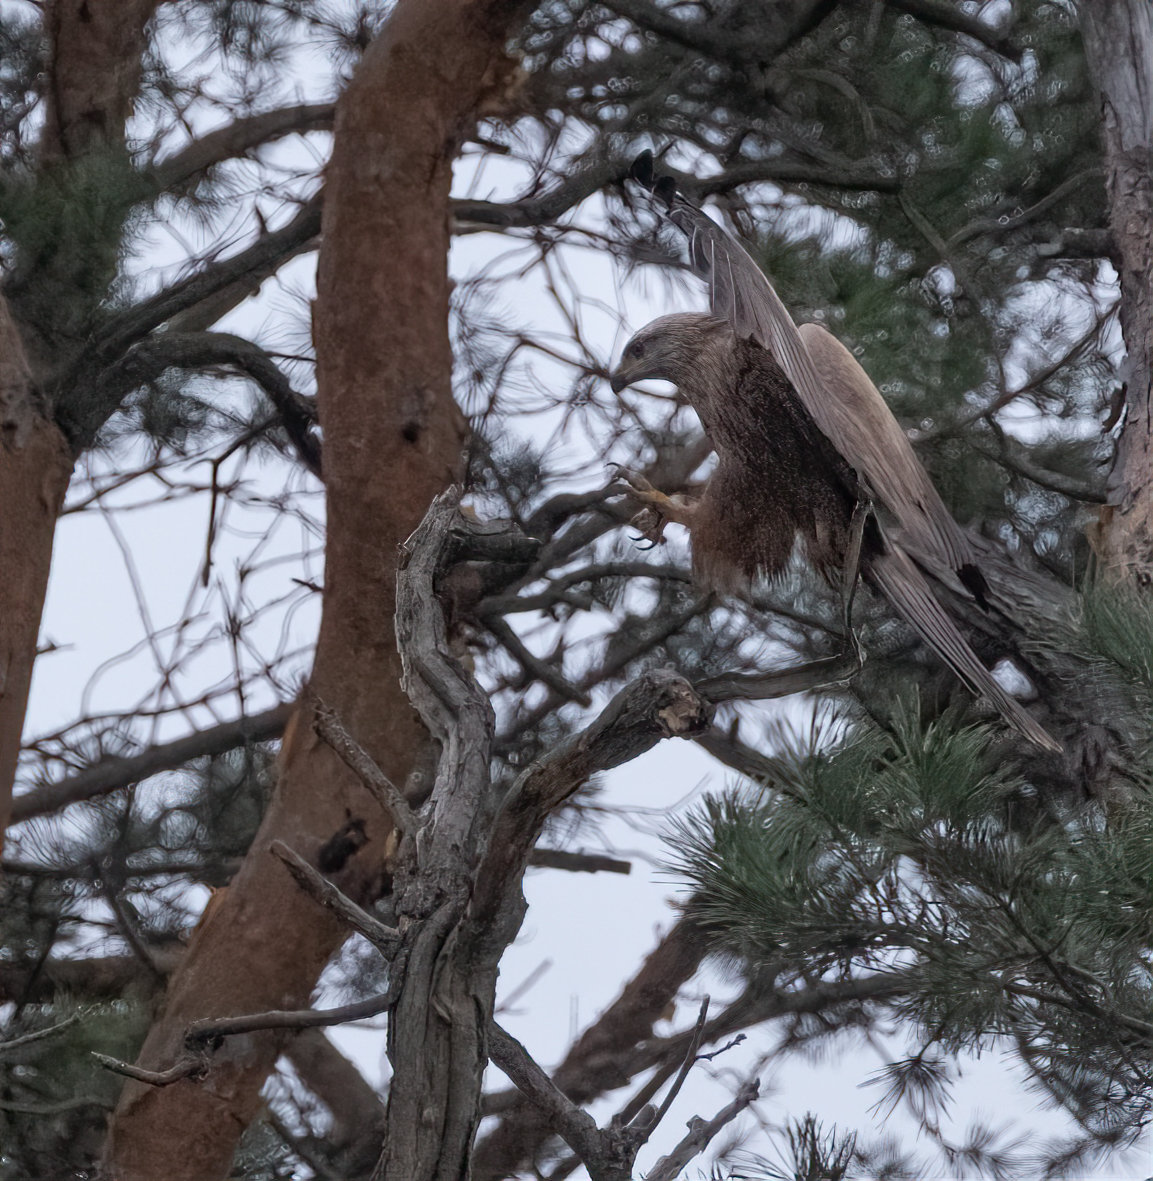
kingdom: Animalia
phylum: Chordata
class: Aves
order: Accipitriformes
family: Accipitridae
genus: Milvus
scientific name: Milvus migrans
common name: Black kite
